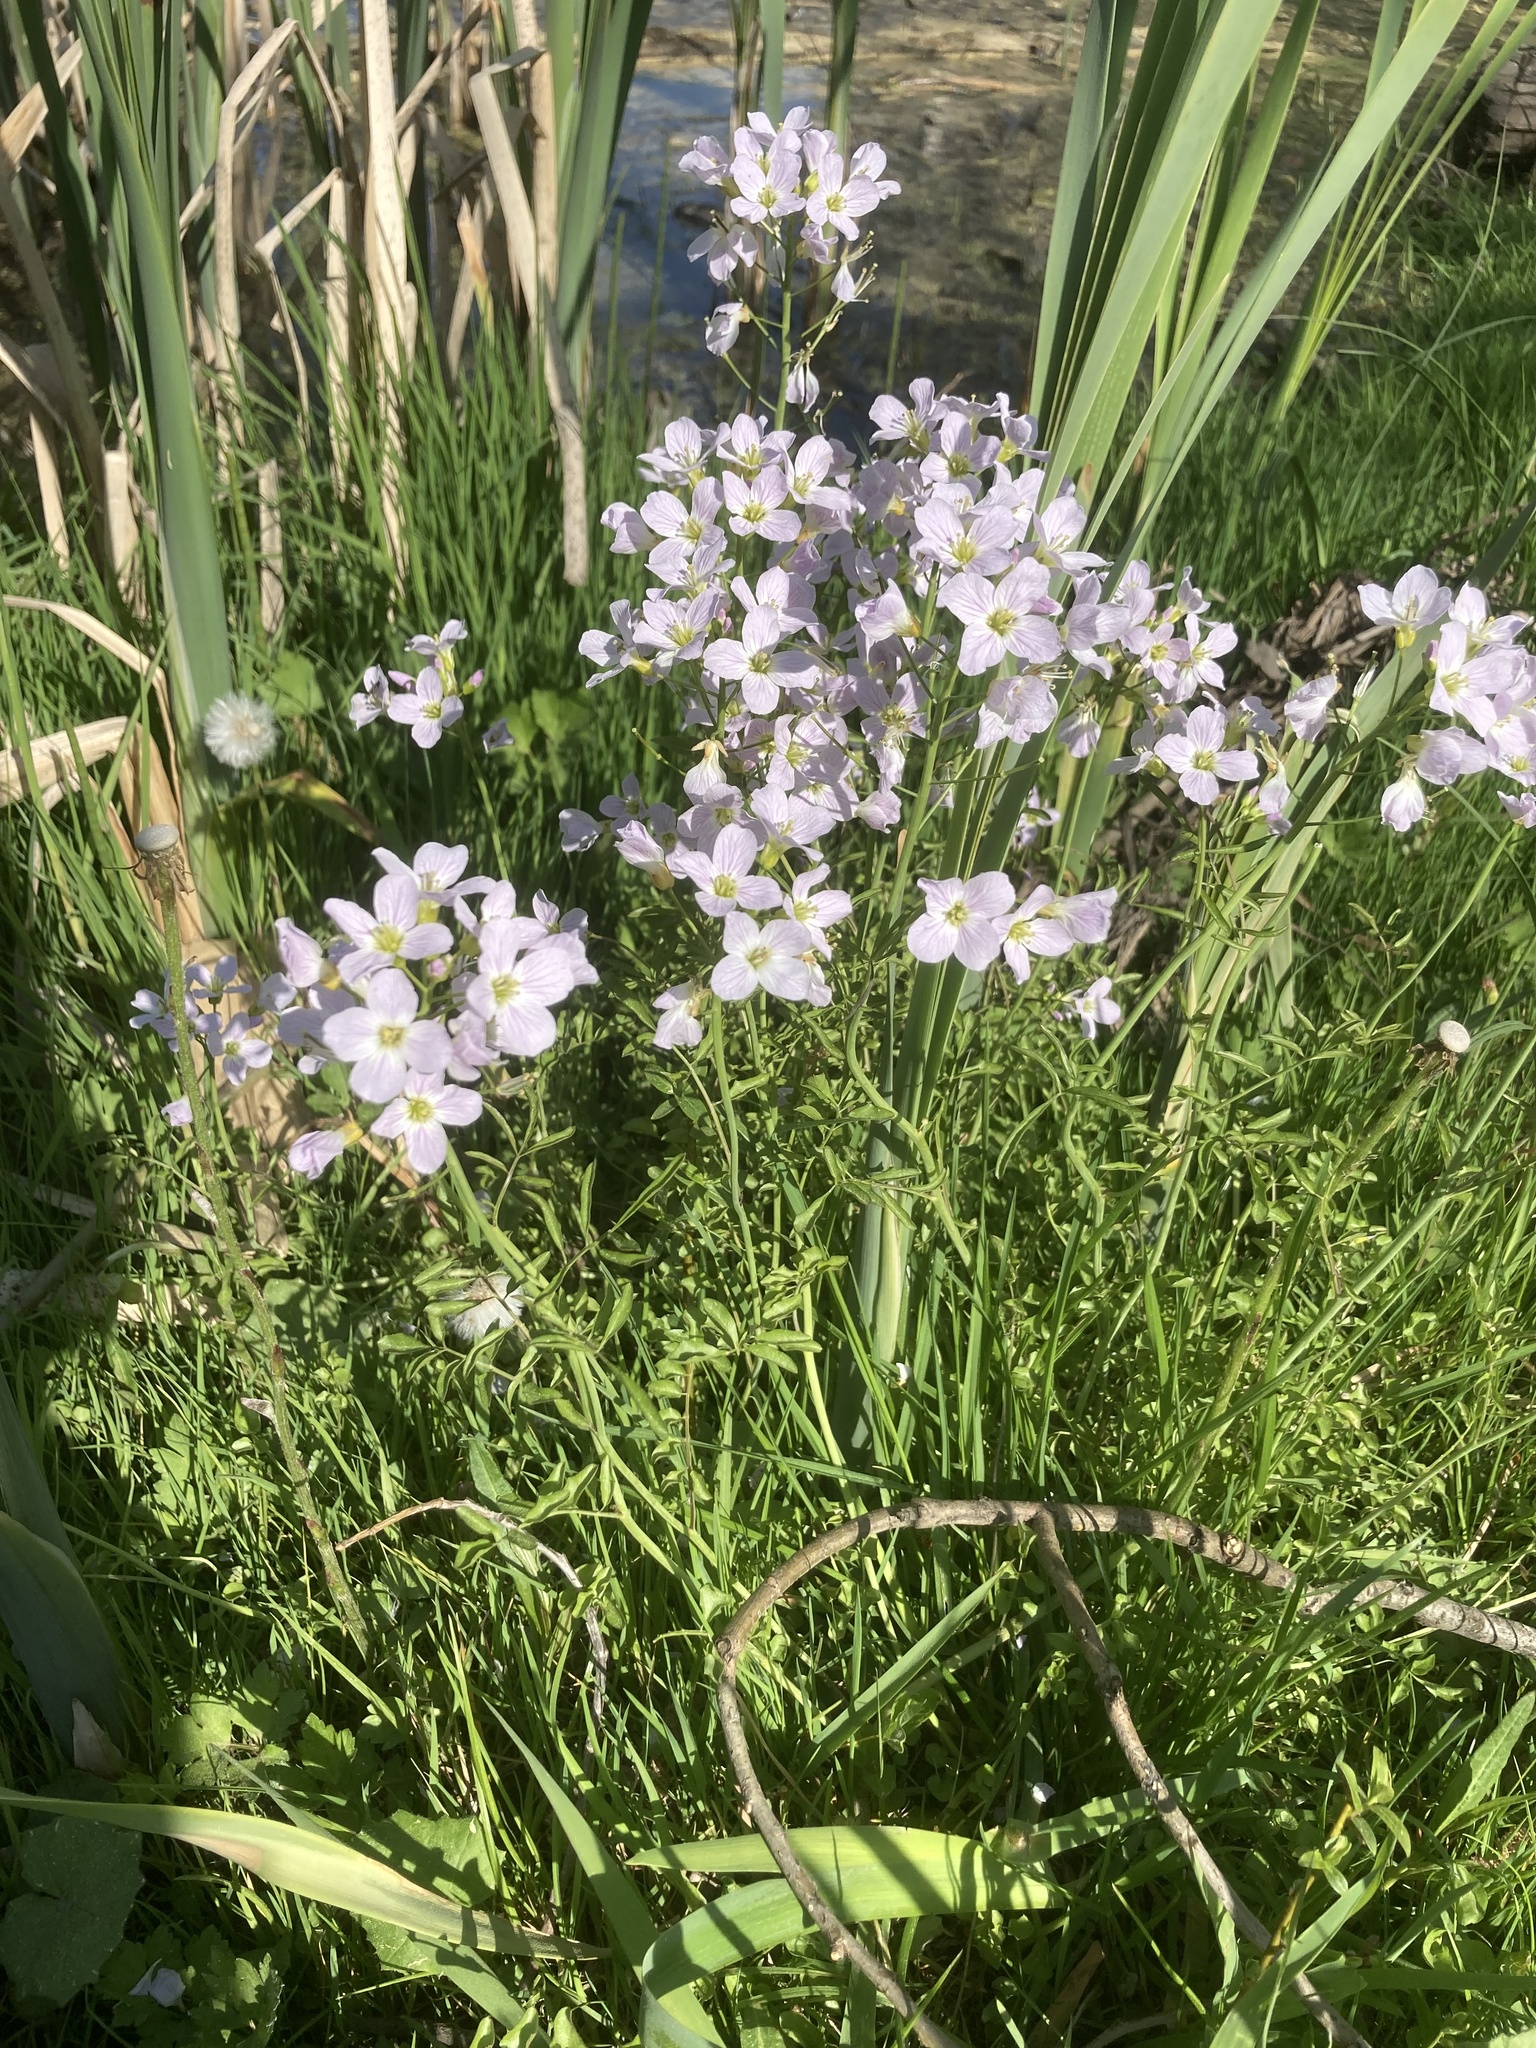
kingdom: Plantae
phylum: Tracheophyta
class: Magnoliopsida
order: Brassicales
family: Brassicaceae
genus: Cardamine
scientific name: Cardamine dentata
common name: Toothed bittercress
